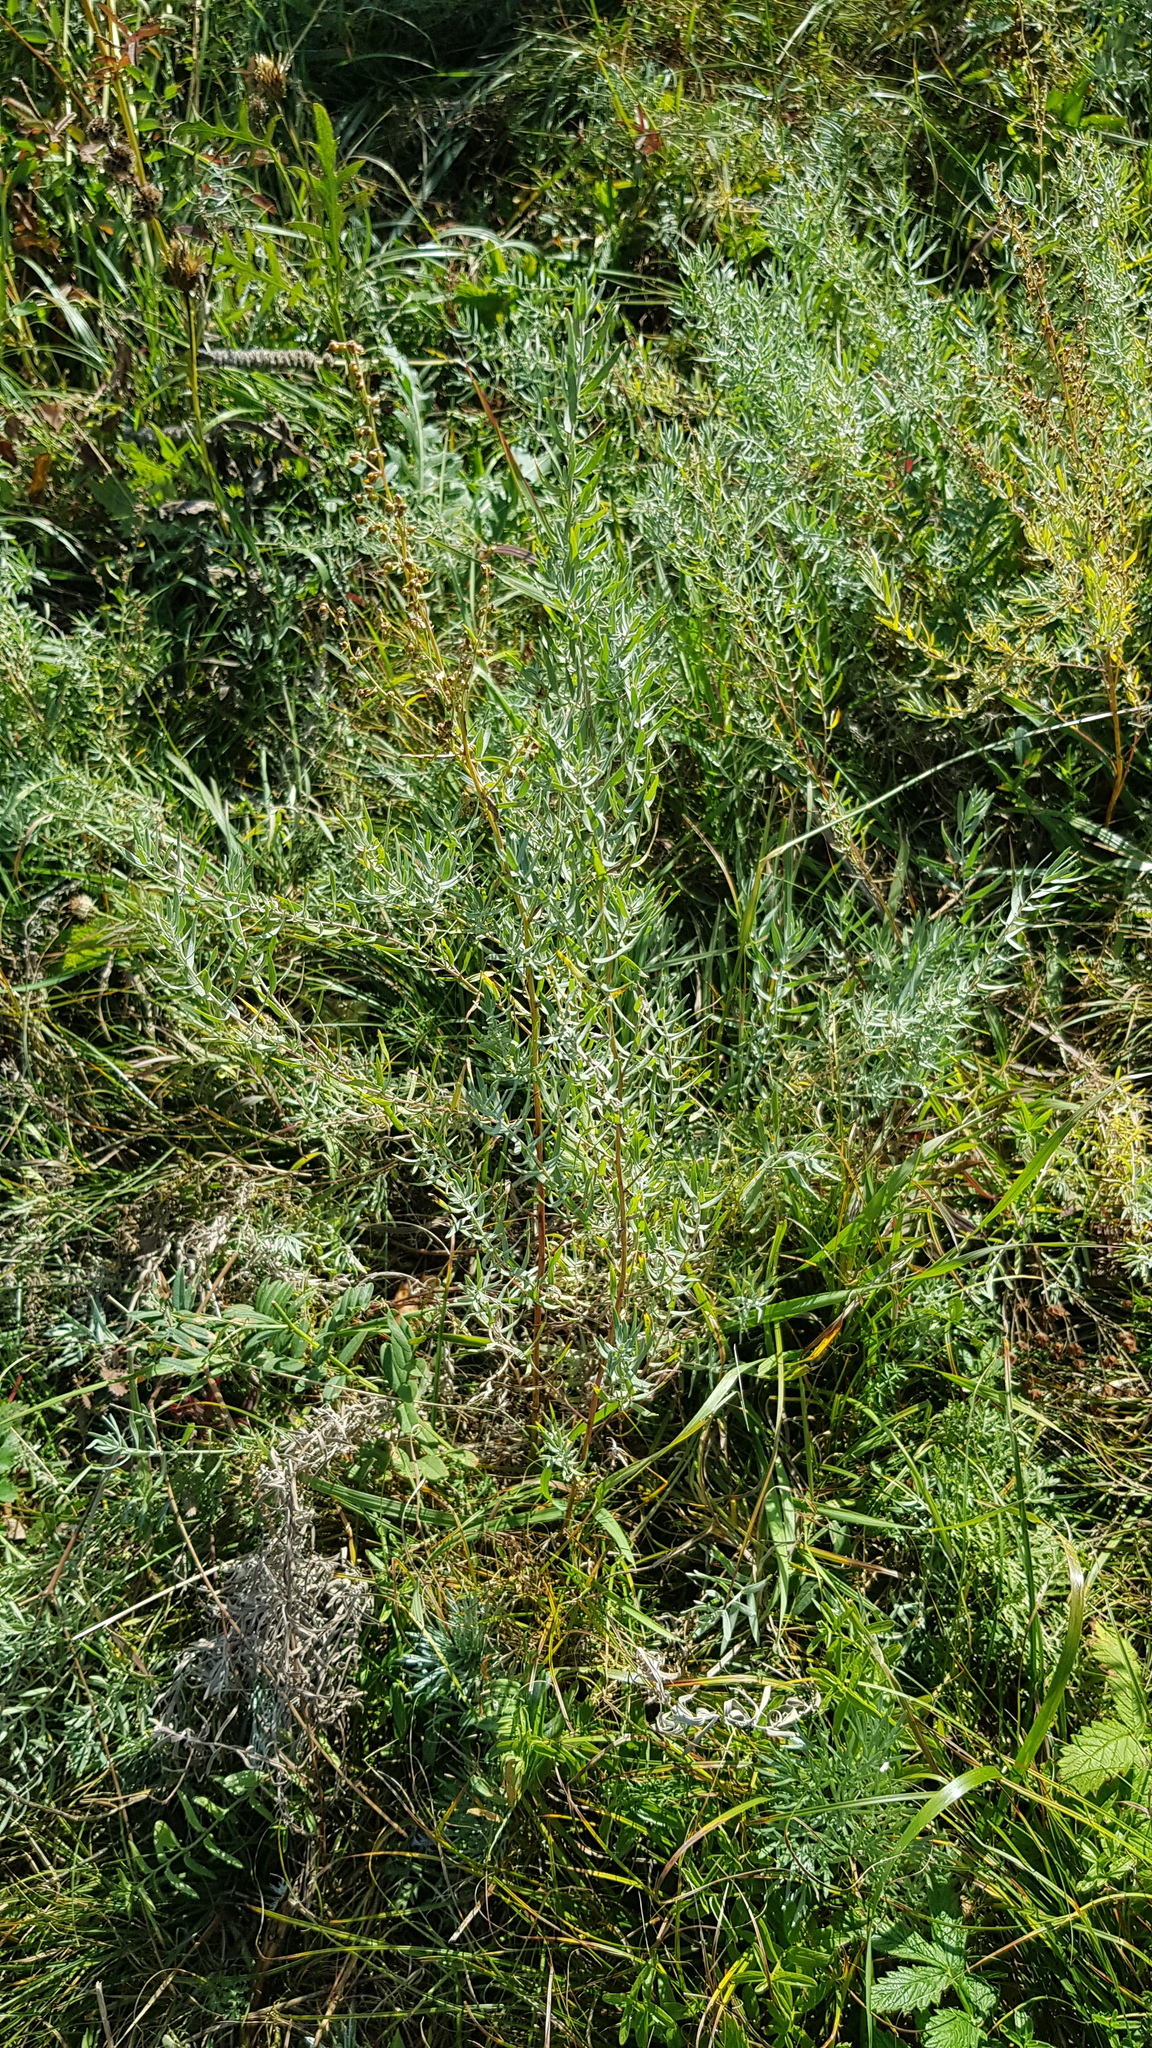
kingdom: Plantae
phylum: Tracheophyta
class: Magnoliopsida
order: Asterales
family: Asteraceae
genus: Artemisia
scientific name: Artemisia glauca
